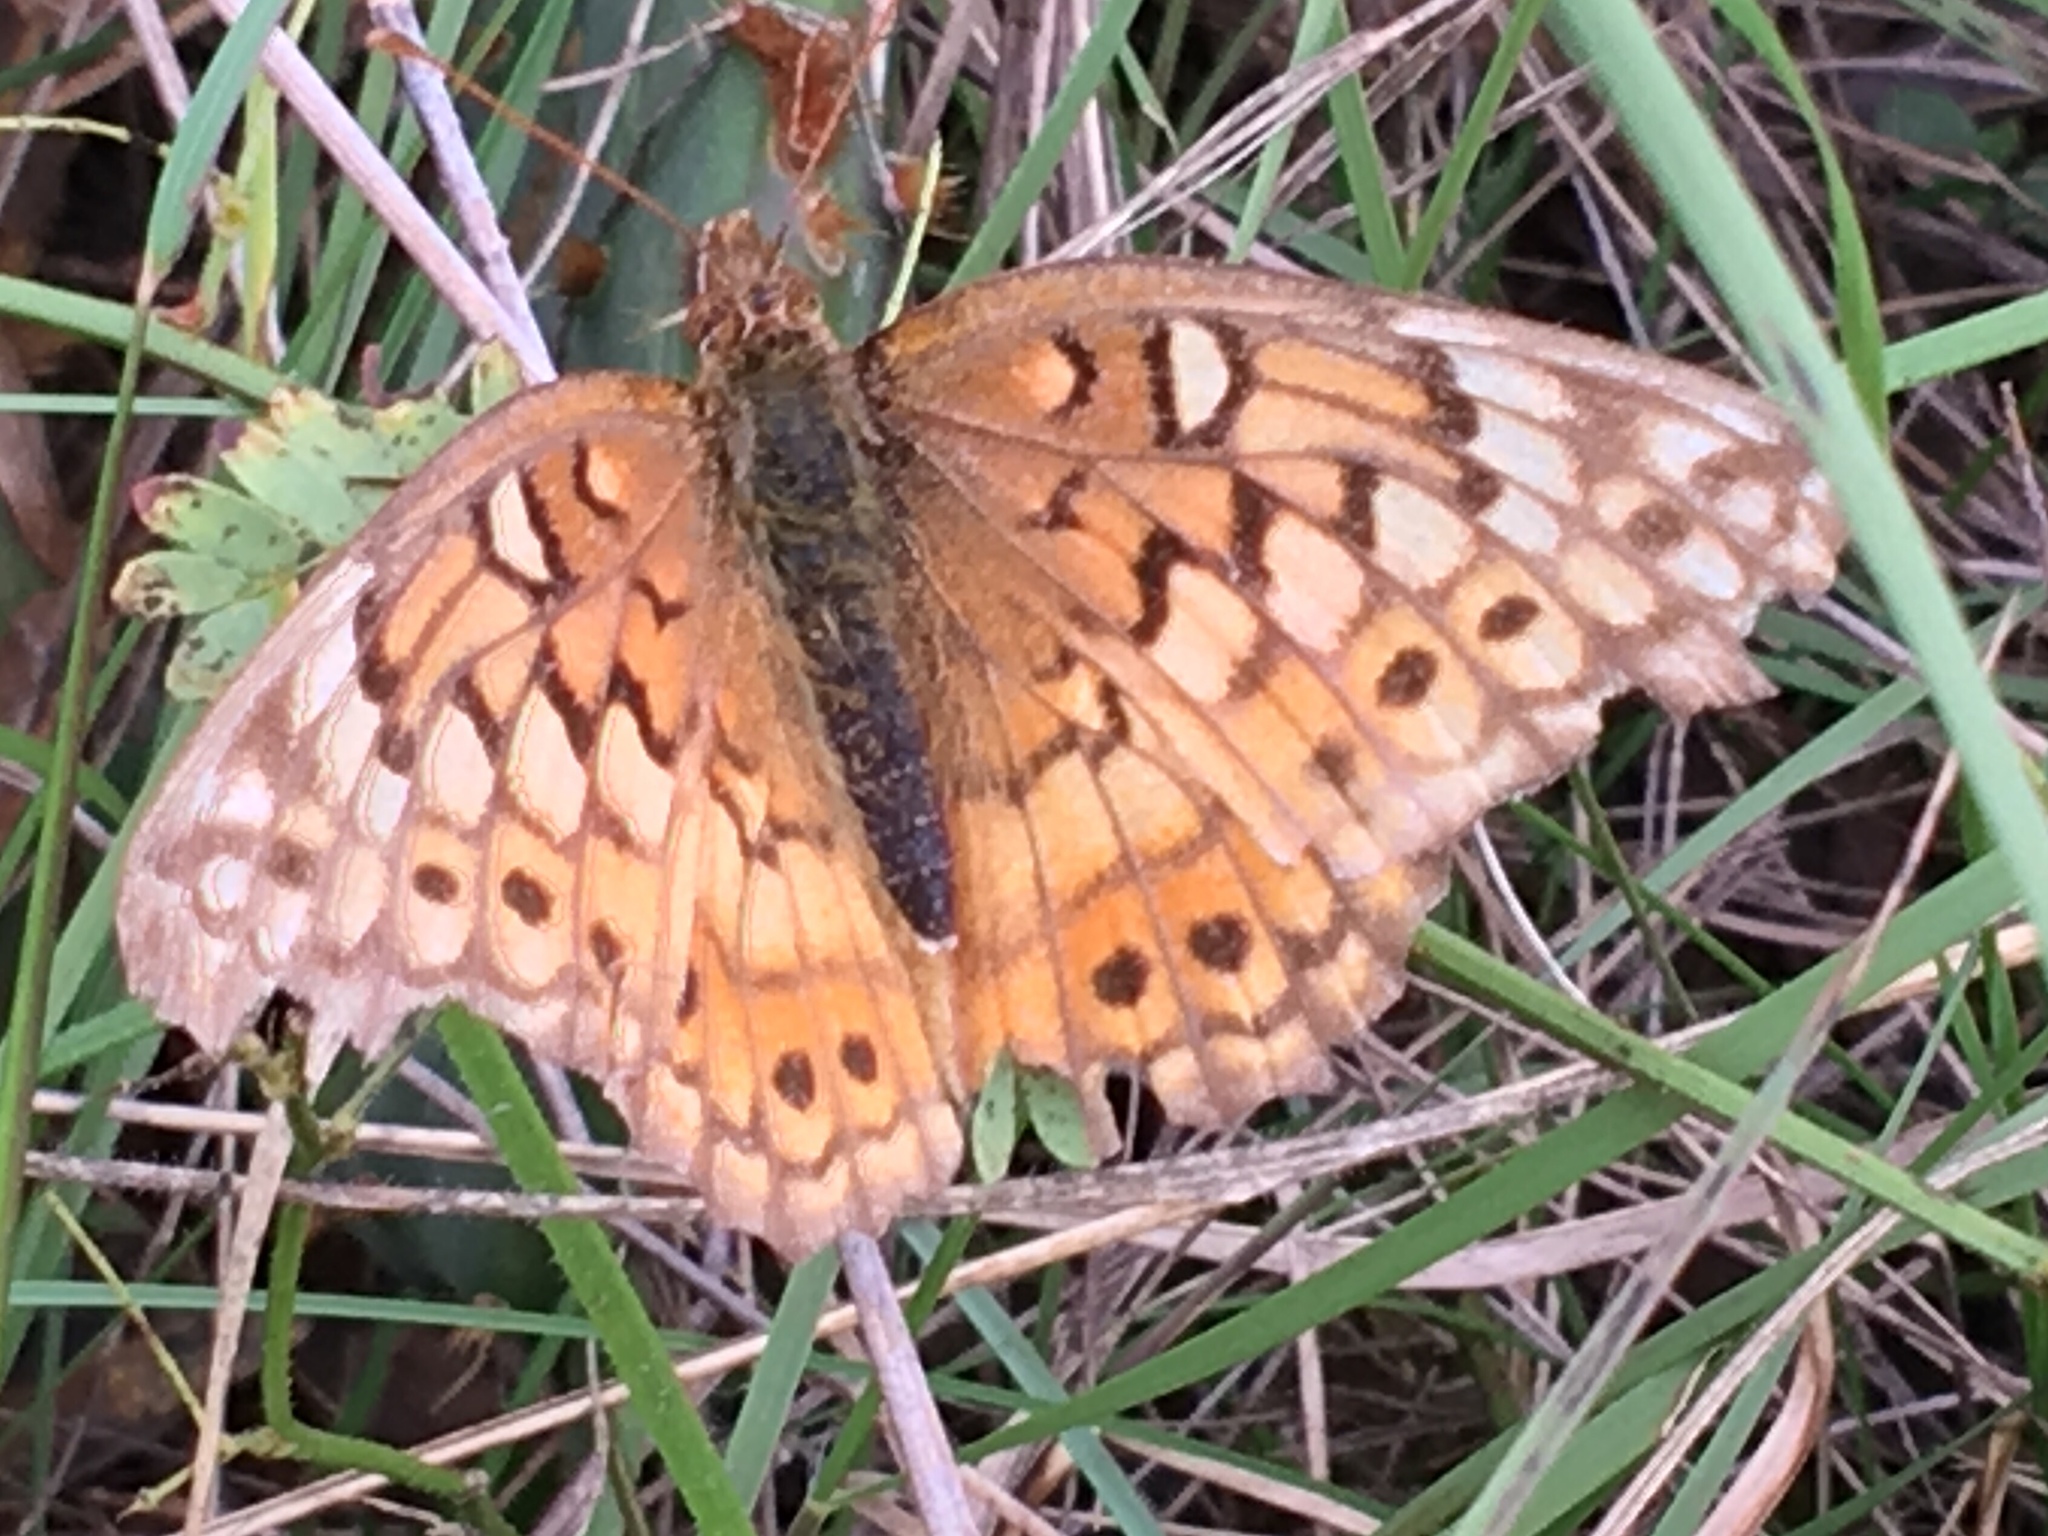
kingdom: Animalia
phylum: Arthropoda
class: Insecta
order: Lepidoptera
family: Nymphalidae
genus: Euptoieta
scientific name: Euptoieta claudia
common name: Variegated fritillary
